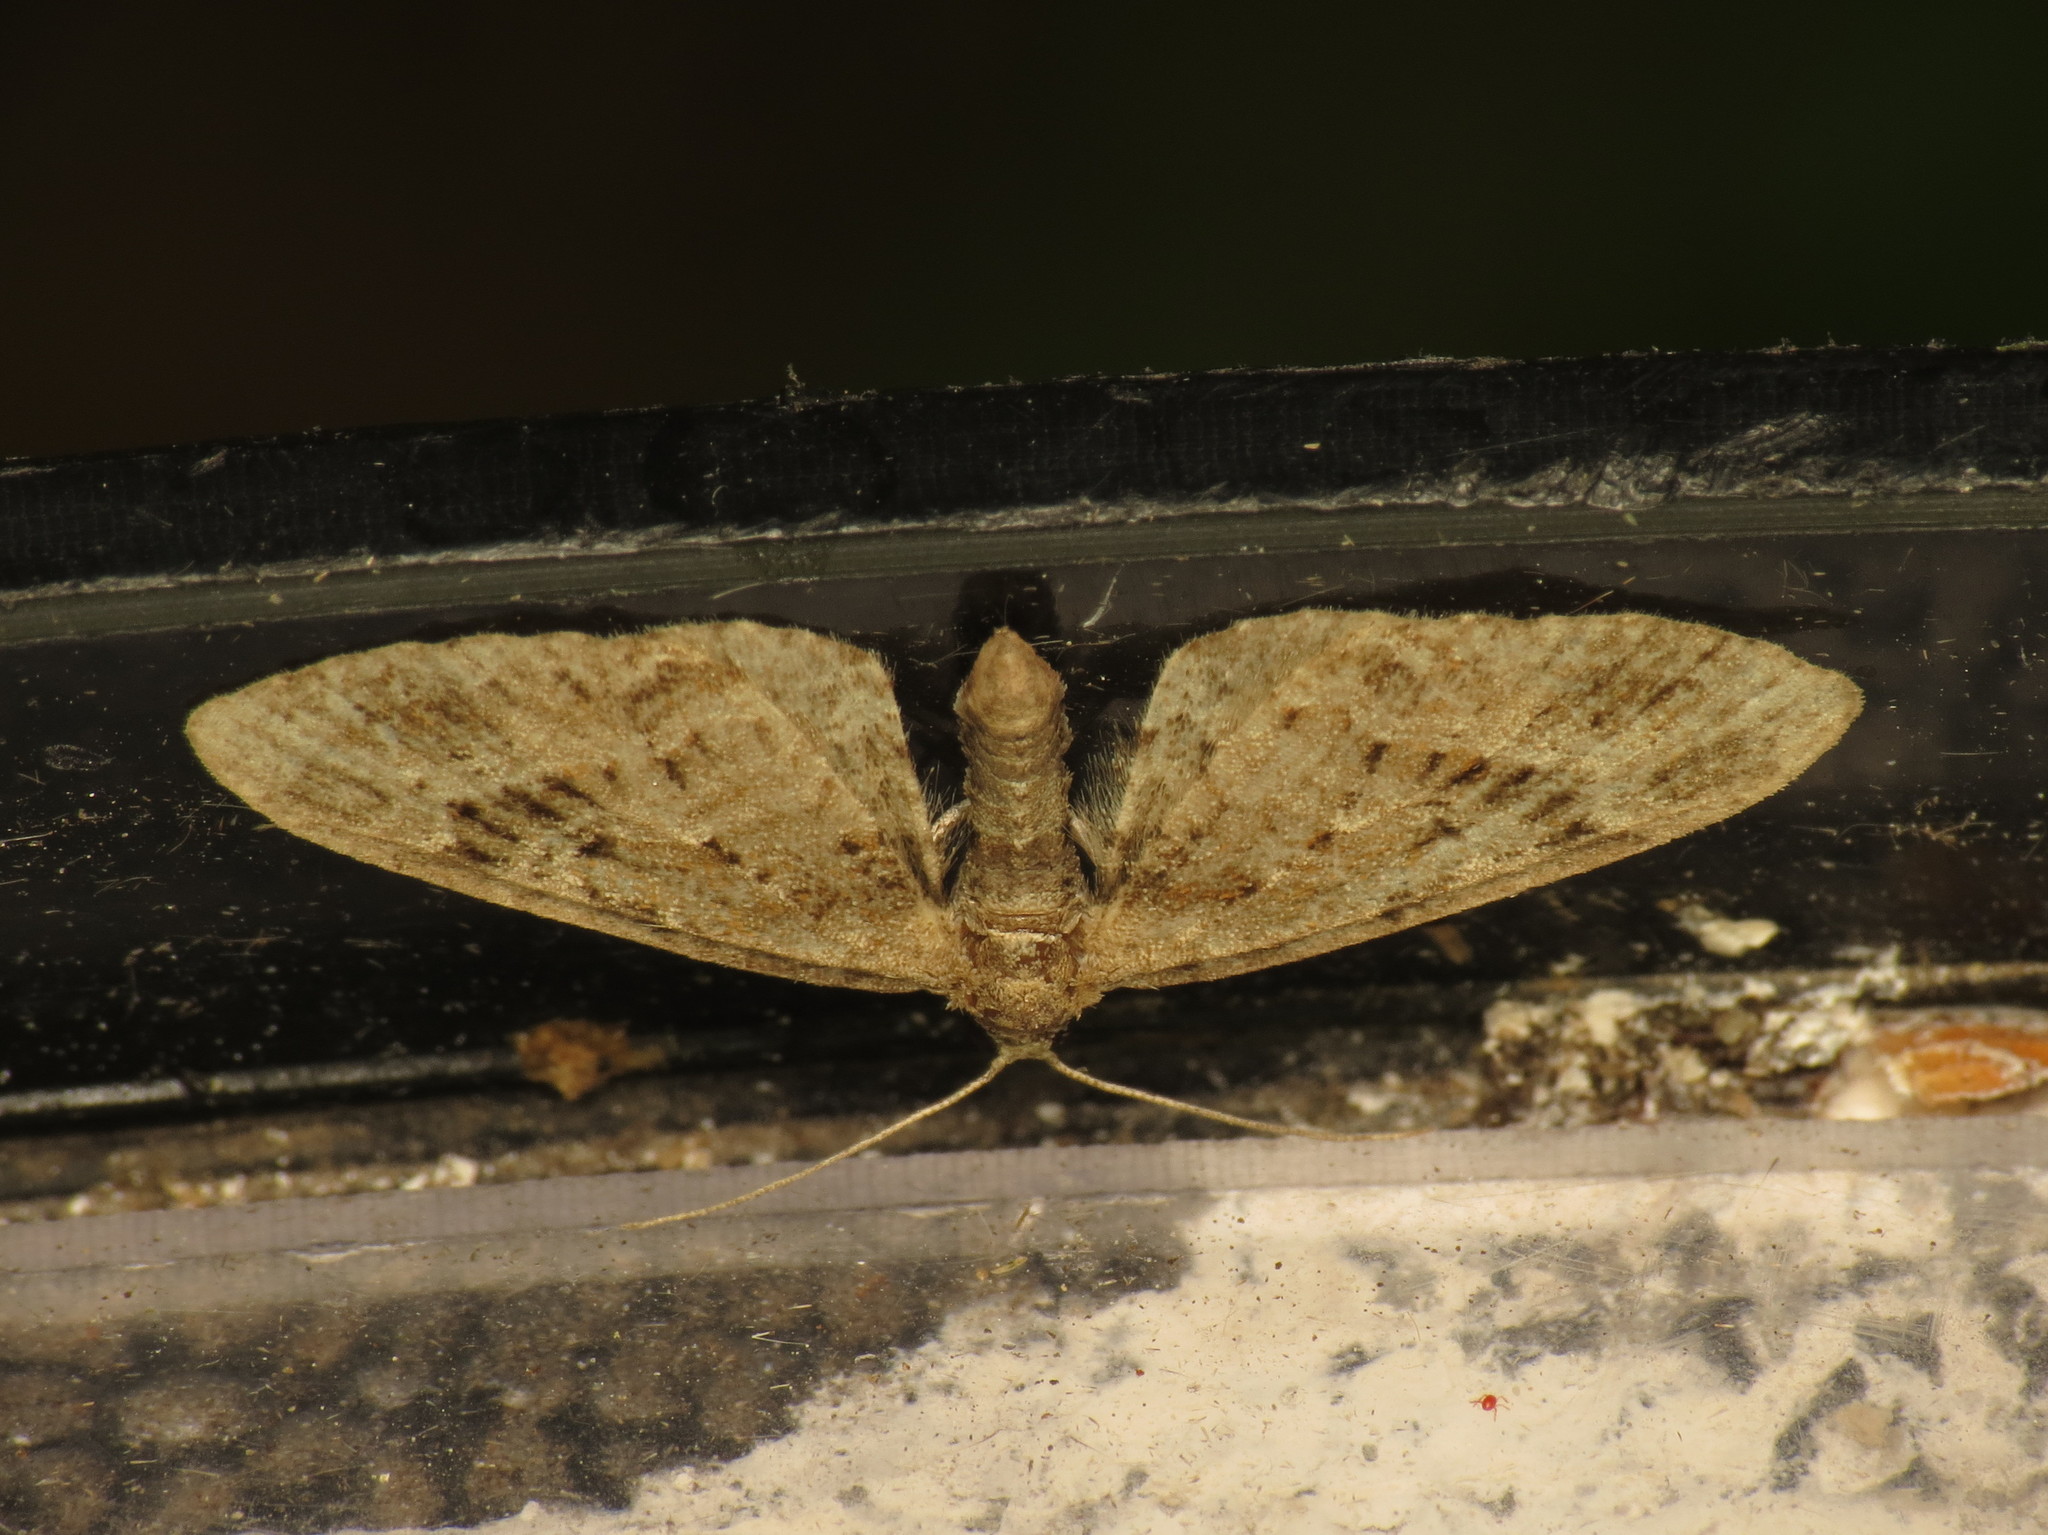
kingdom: Animalia
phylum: Arthropoda
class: Insecta
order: Lepidoptera
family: Geometridae
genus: Eupithecia
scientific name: Eupithecia exiguata
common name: Mottled pug
